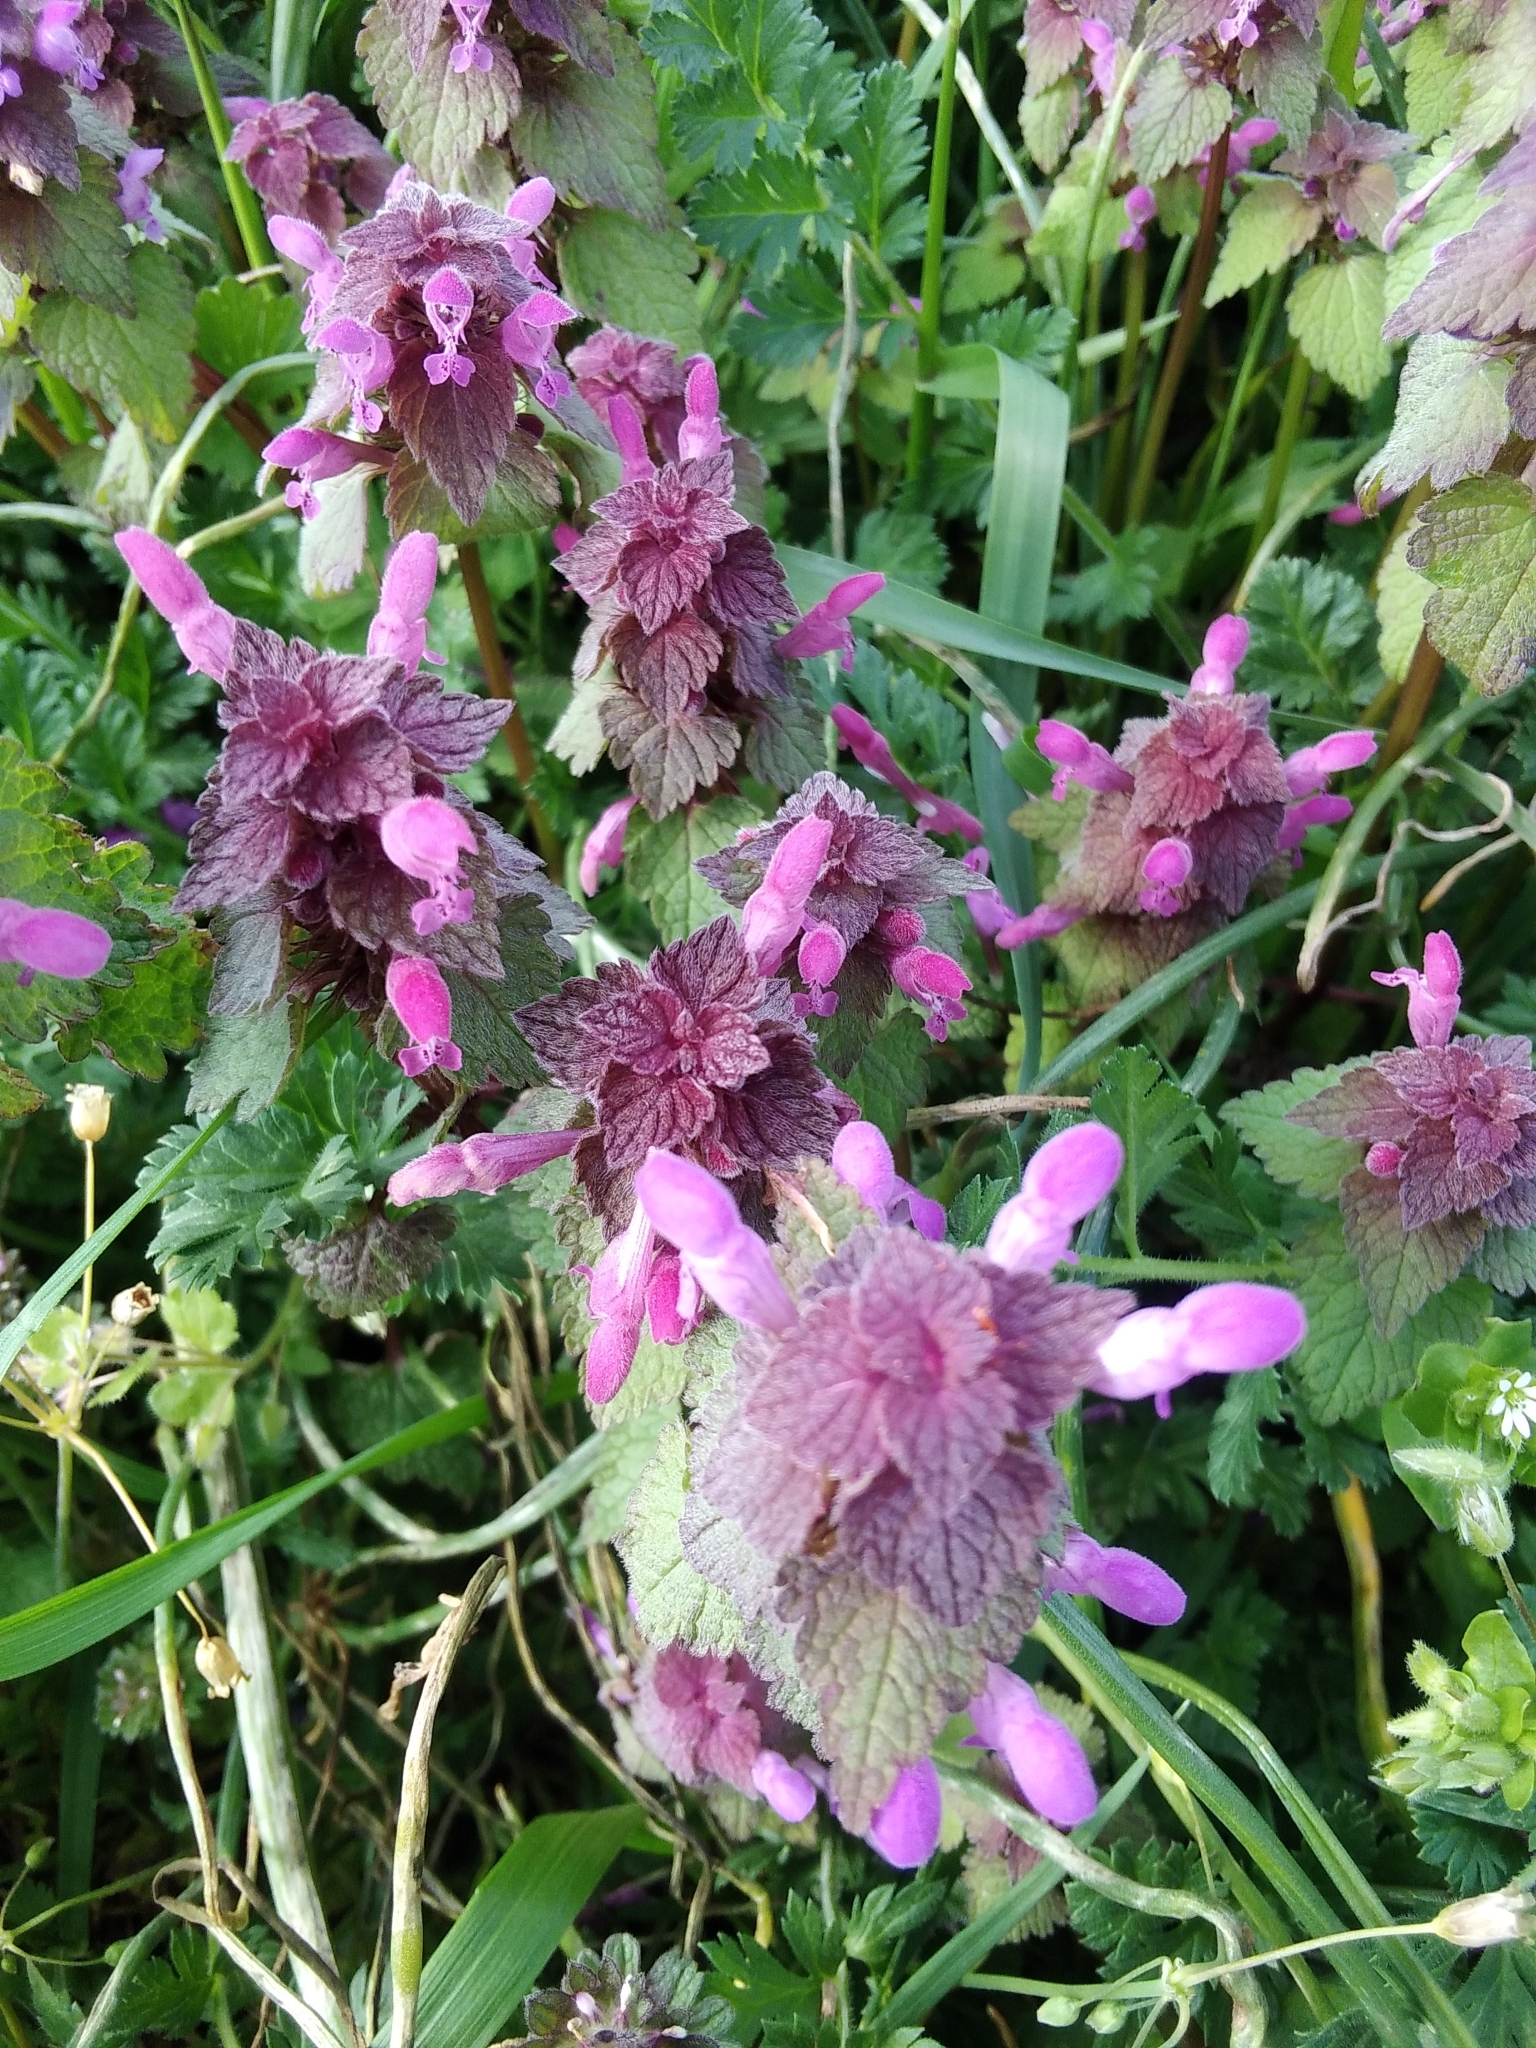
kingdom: Plantae
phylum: Tracheophyta
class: Magnoliopsida
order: Lamiales
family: Lamiaceae
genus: Lamium
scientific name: Lamium purpureum
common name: Red dead-nettle
